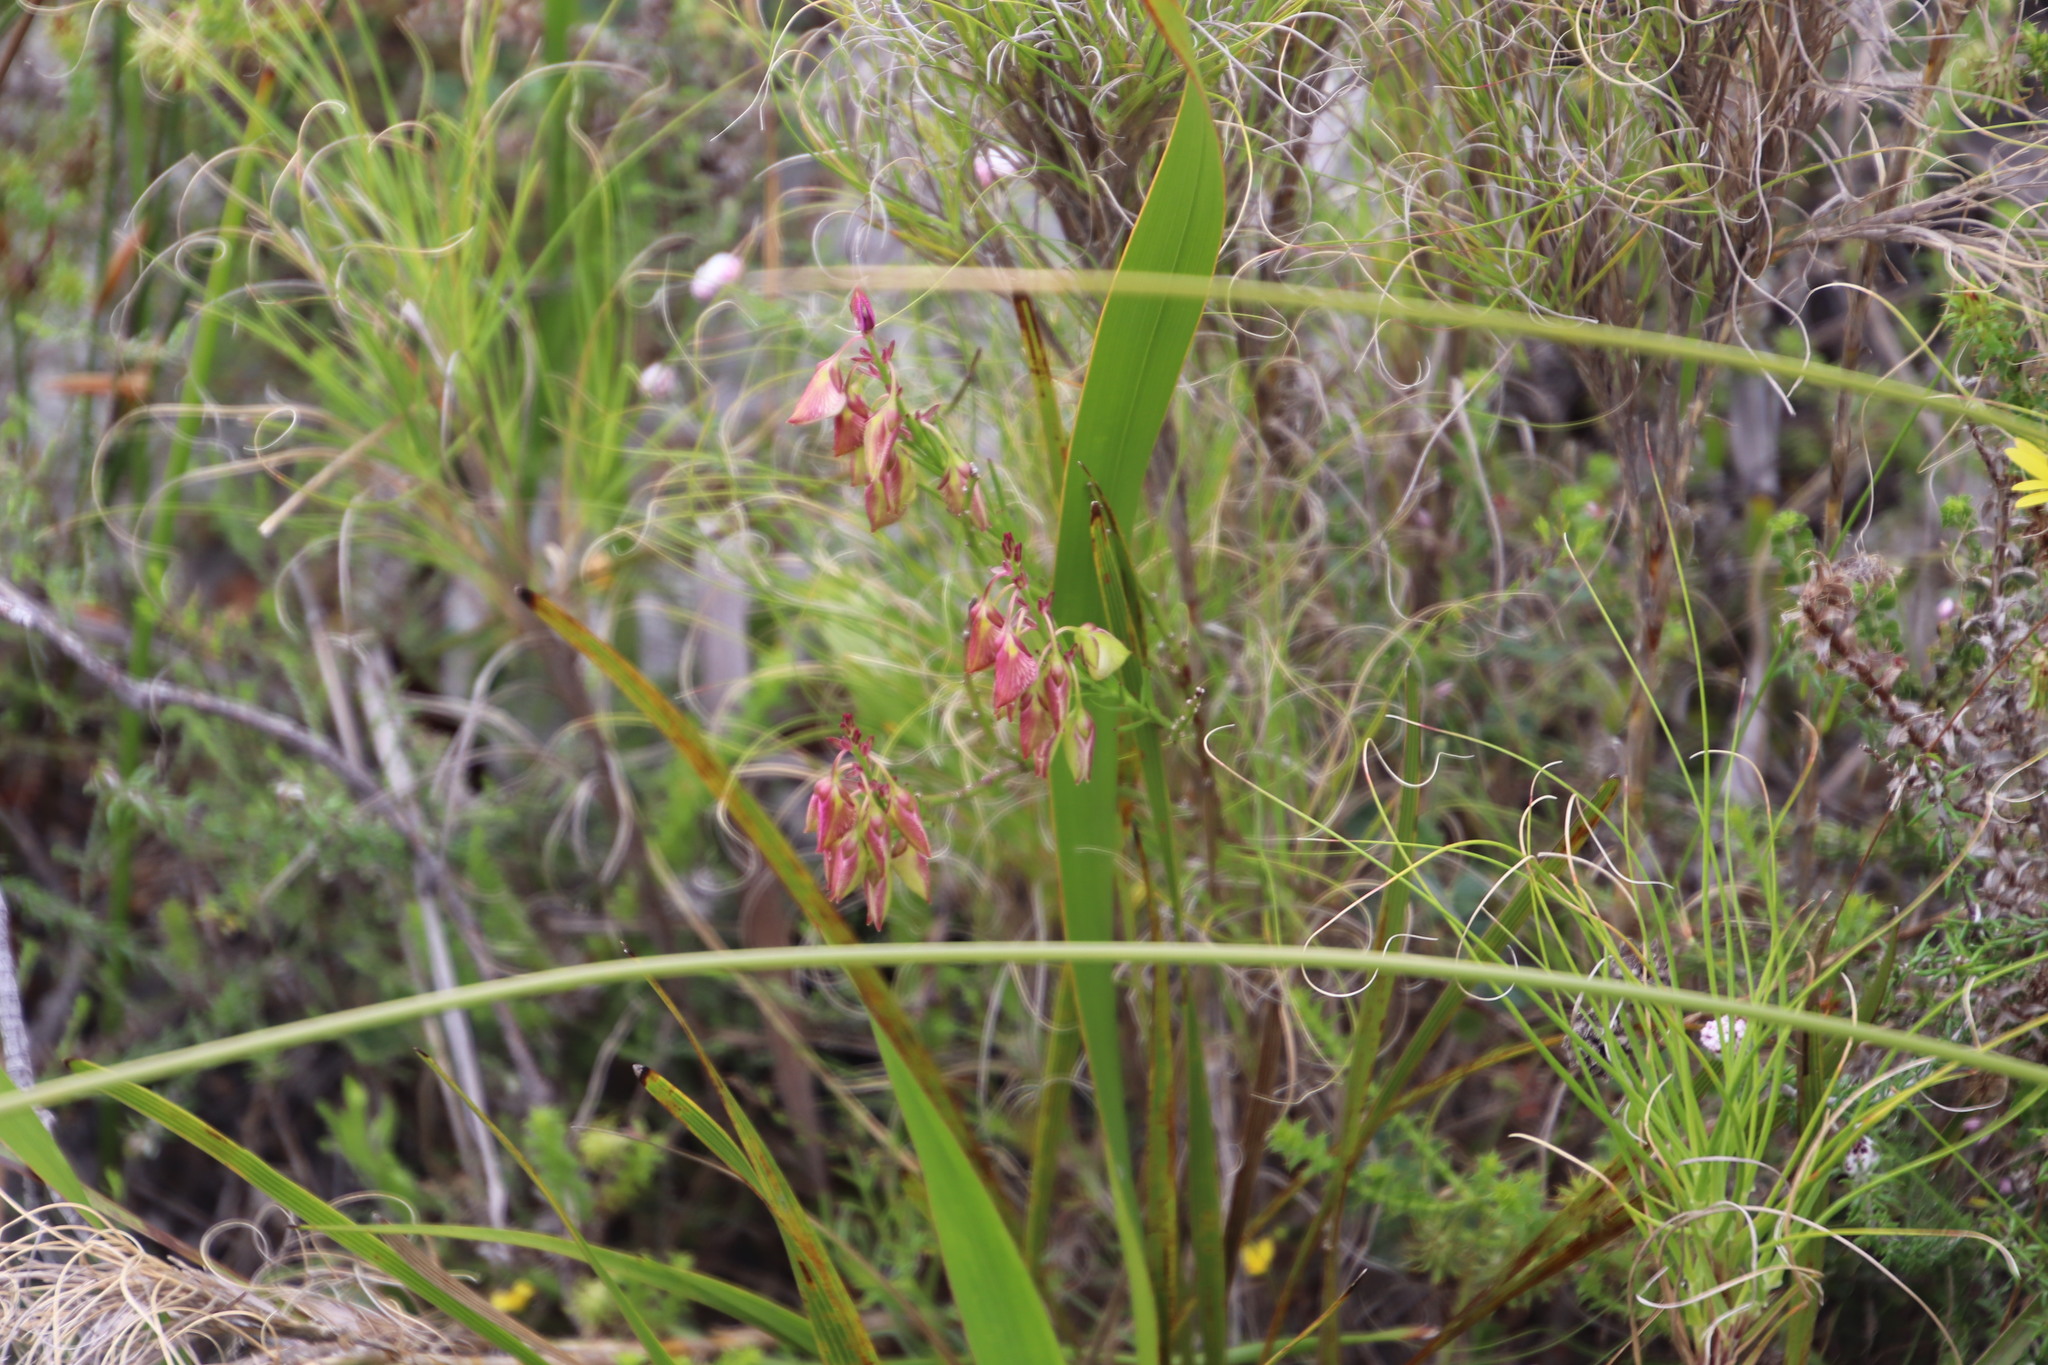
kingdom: Plantae
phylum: Tracheophyta
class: Magnoliopsida
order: Fabales
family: Polygalaceae
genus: Polygala
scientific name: Polygala bracteolata
